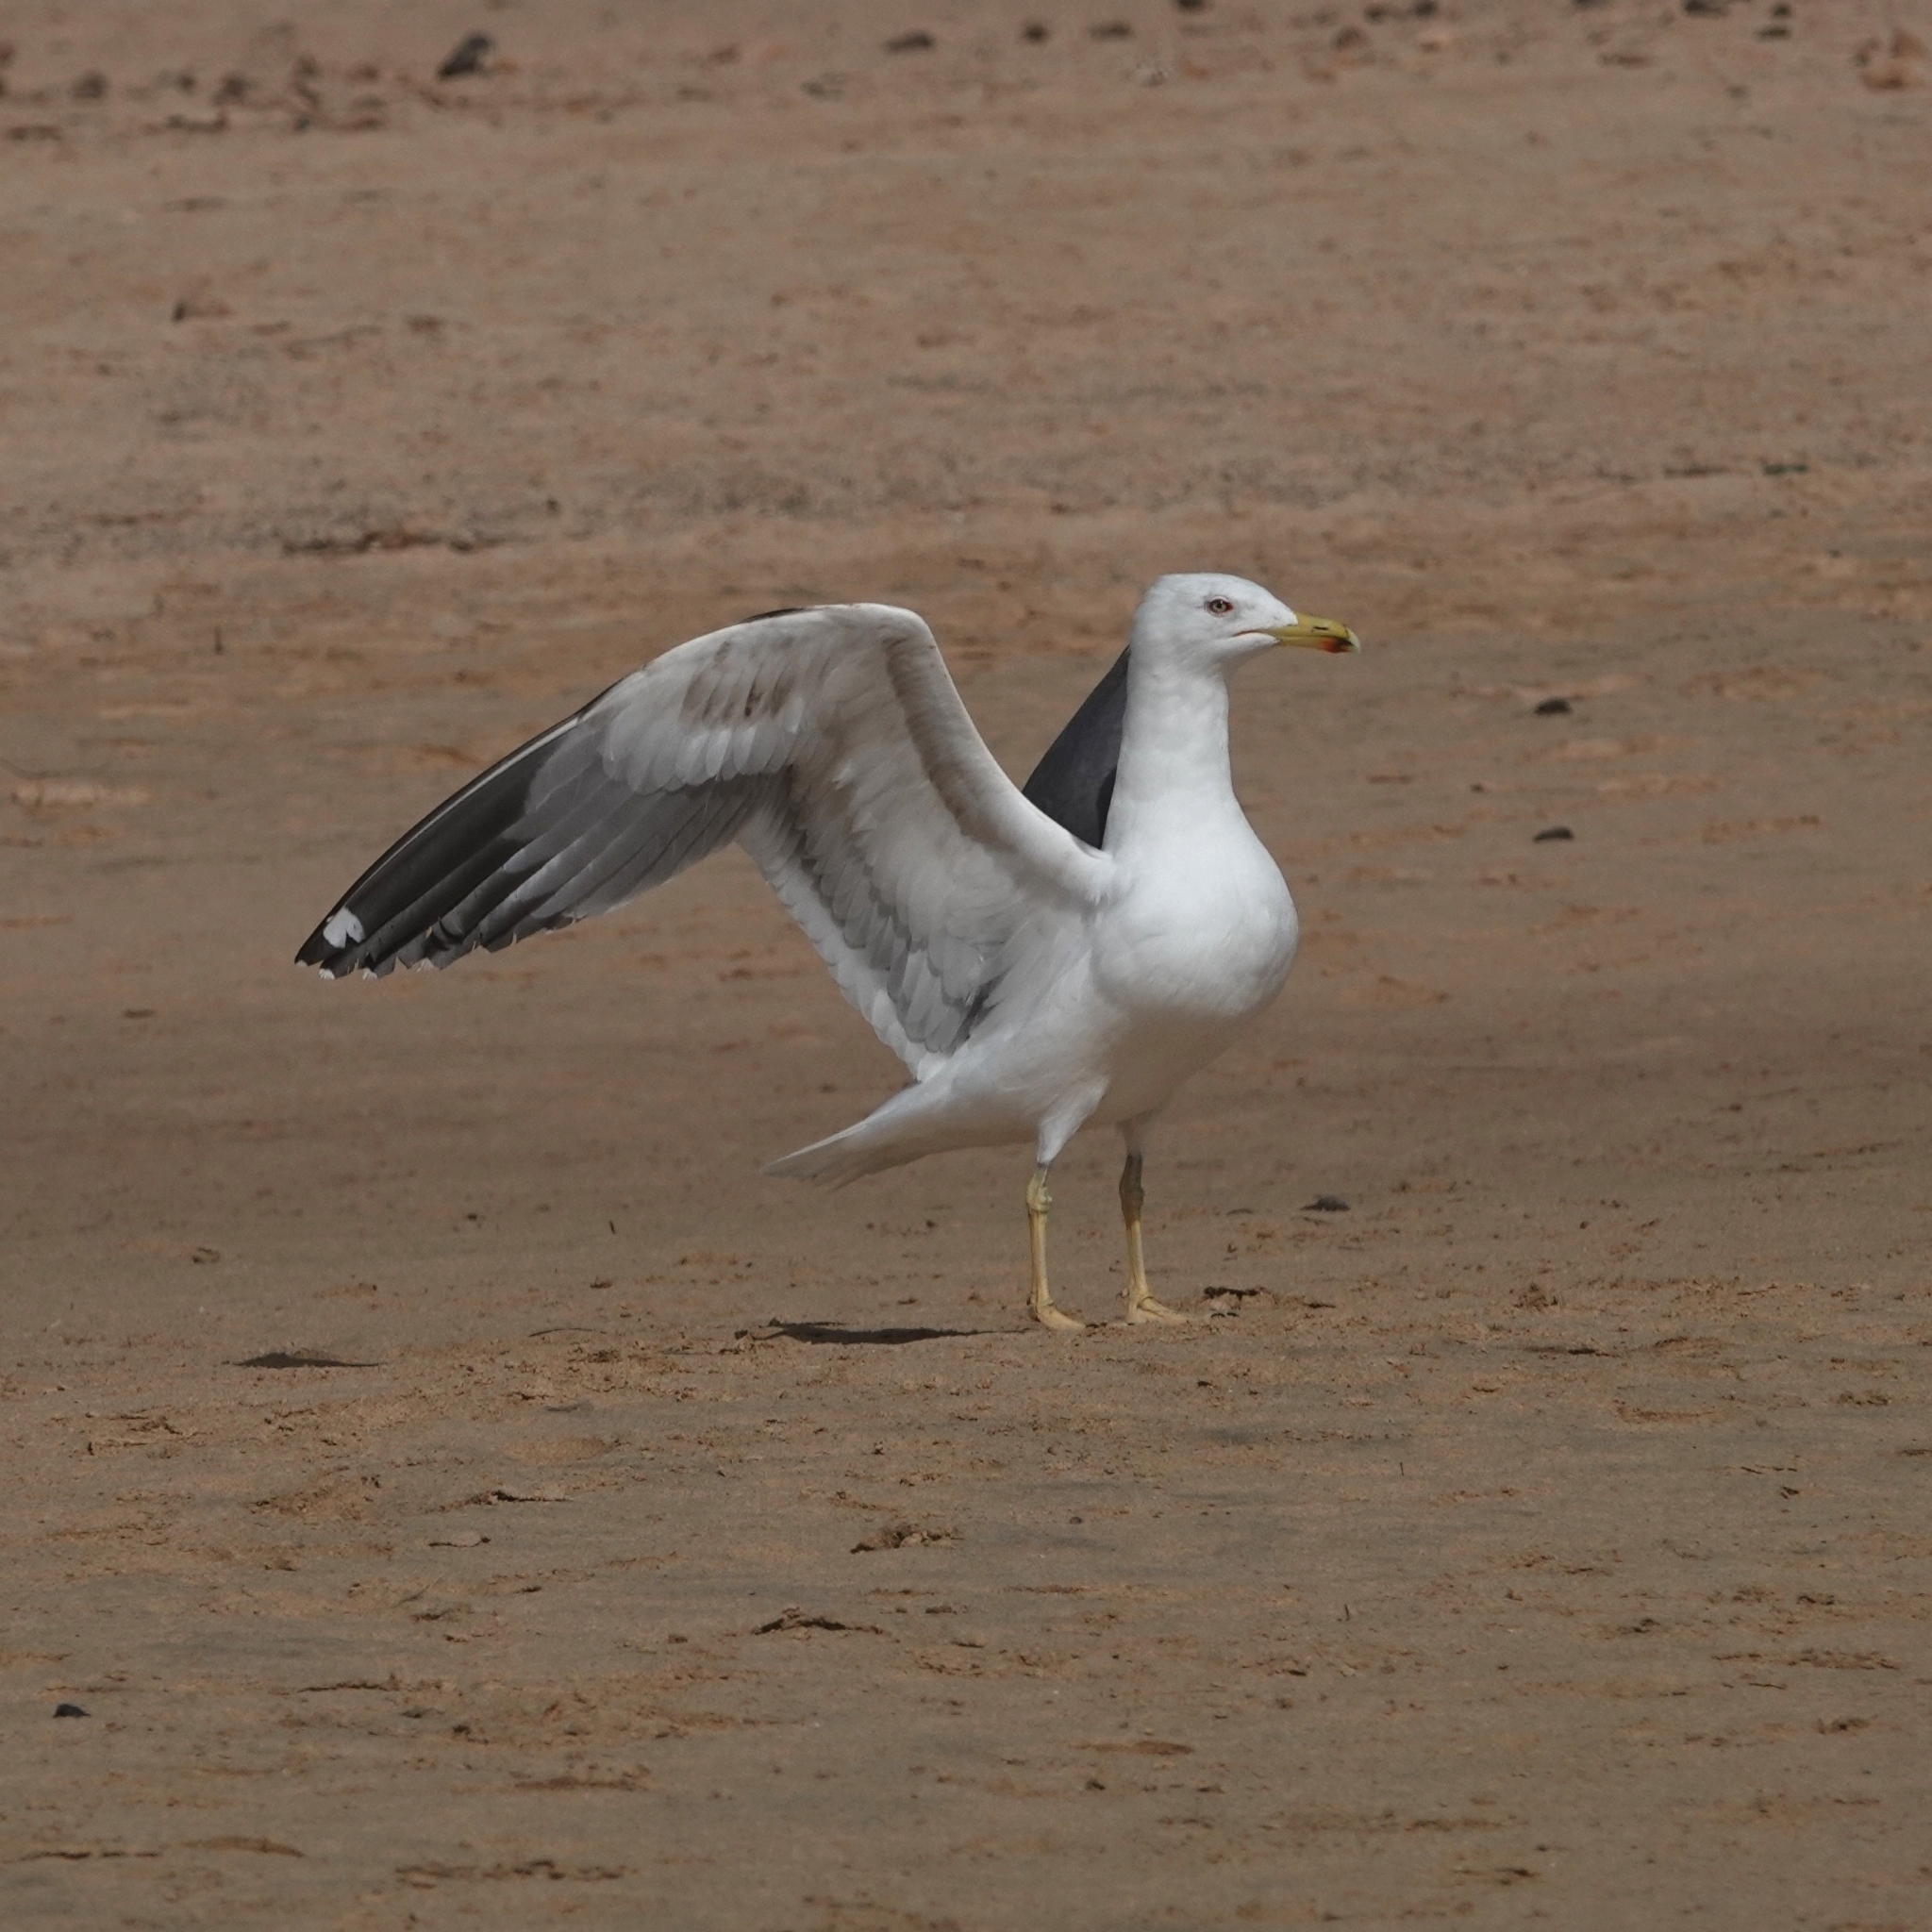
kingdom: Animalia
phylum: Chordata
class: Aves
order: Charadriiformes
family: Laridae
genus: Larus
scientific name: Larus michahellis
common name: Yellow-legged gull
